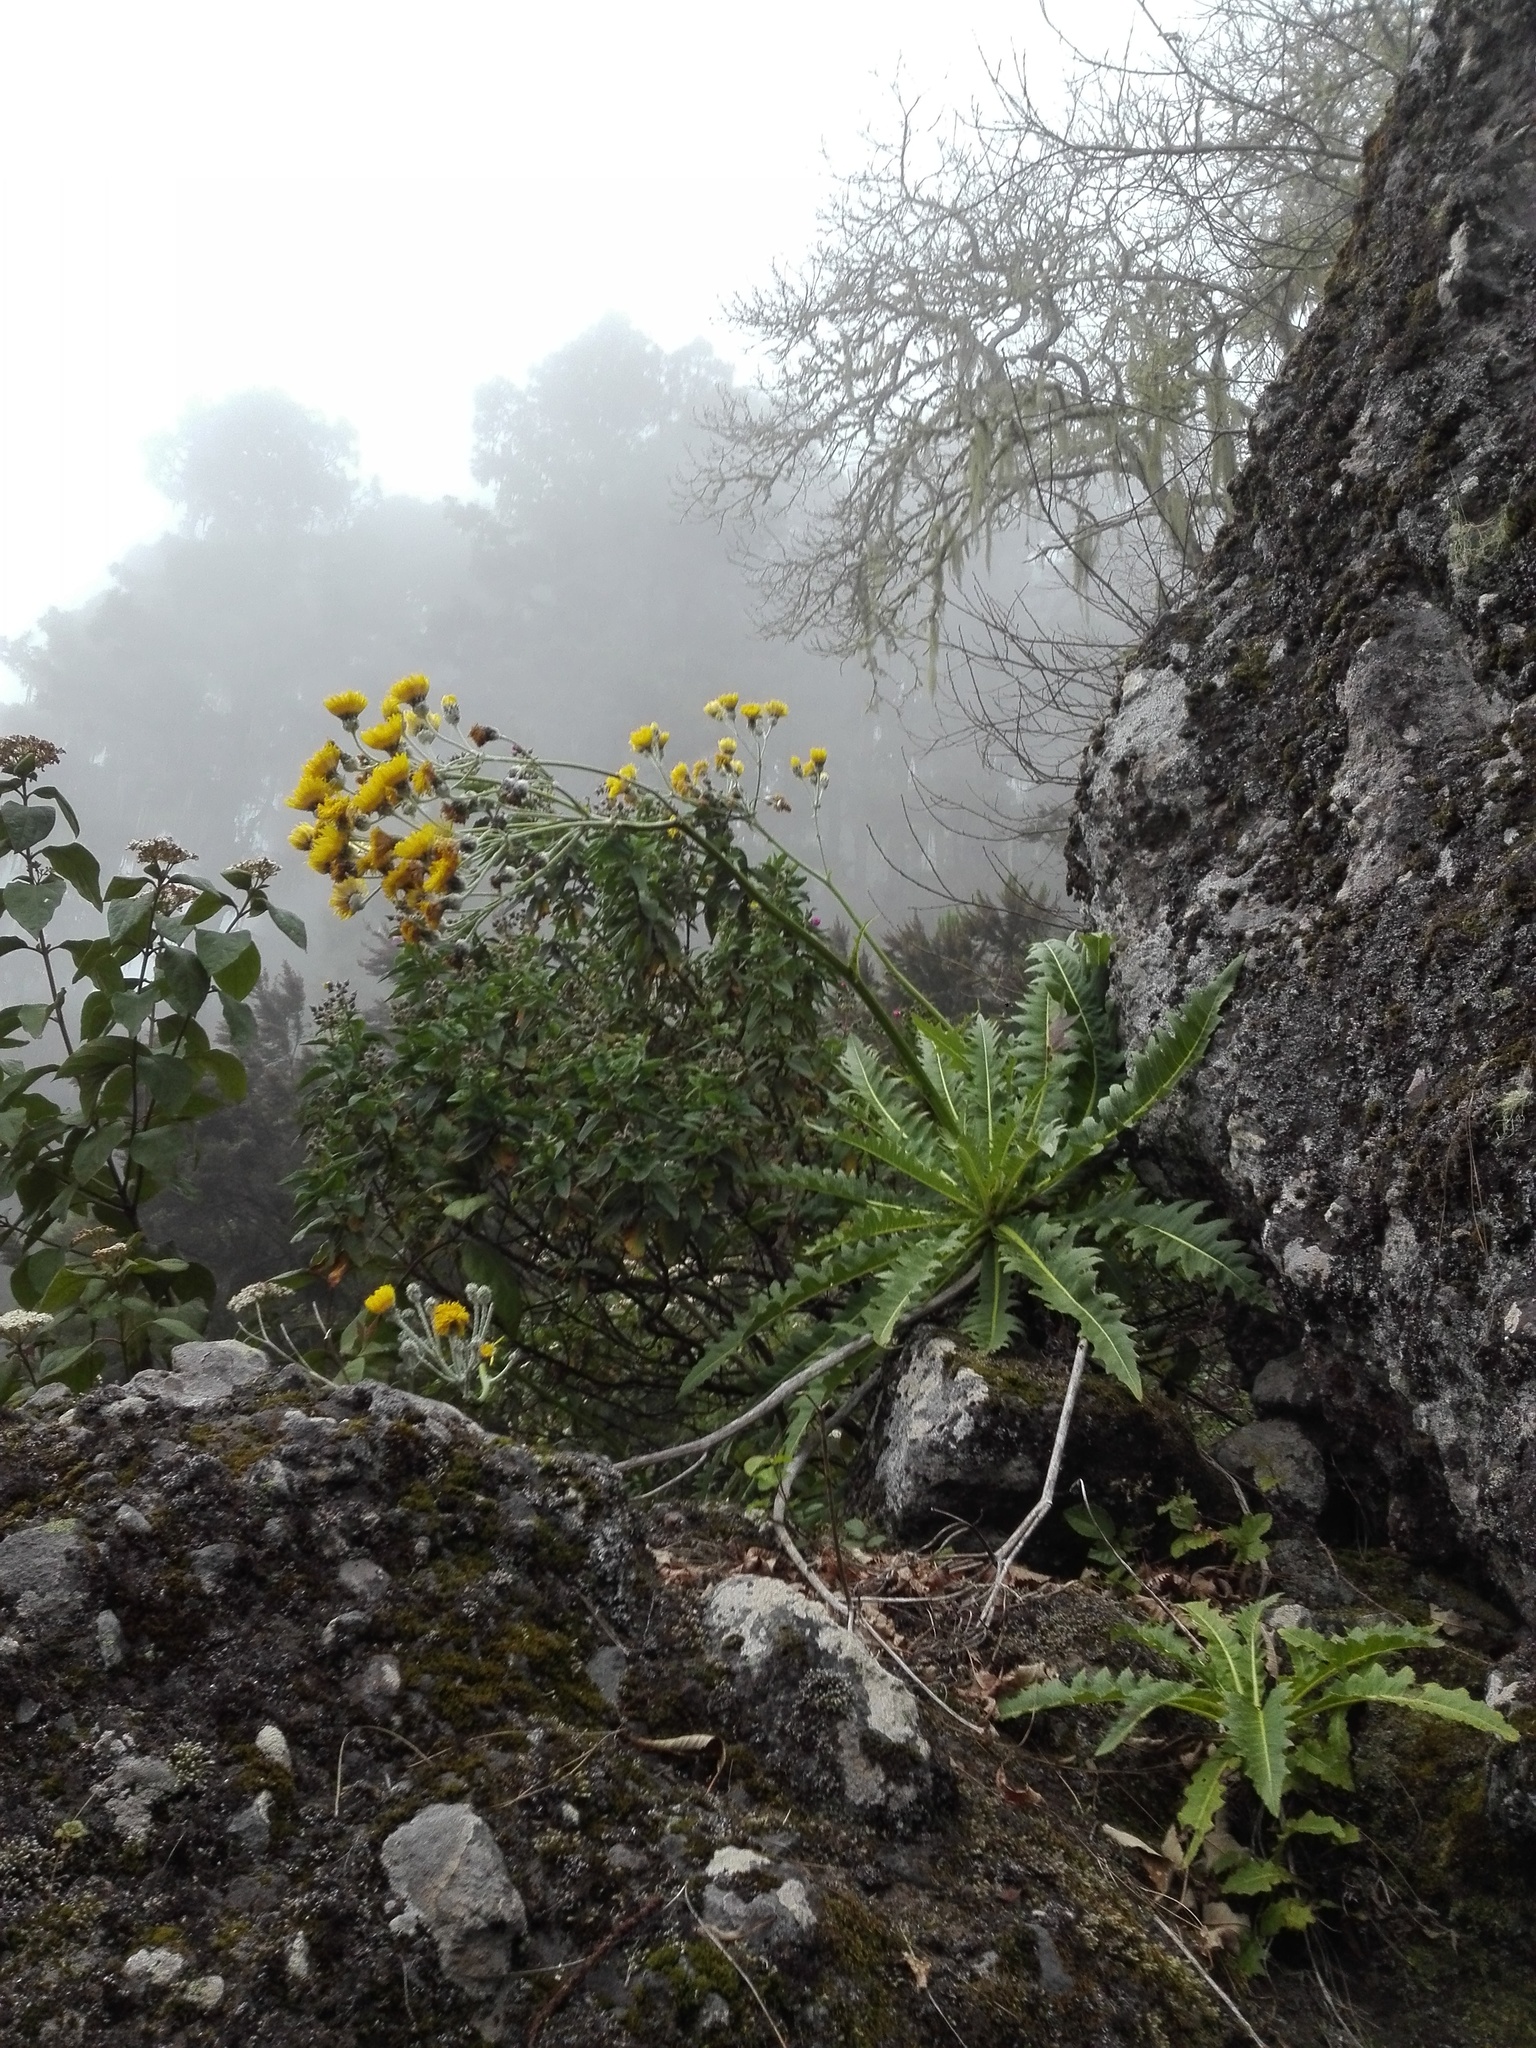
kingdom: Plantae
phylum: Tracheophyta
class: Magnoliopsida
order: Asterales
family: Asteraceae
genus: Sonchus
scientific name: Sonchus acaulis
